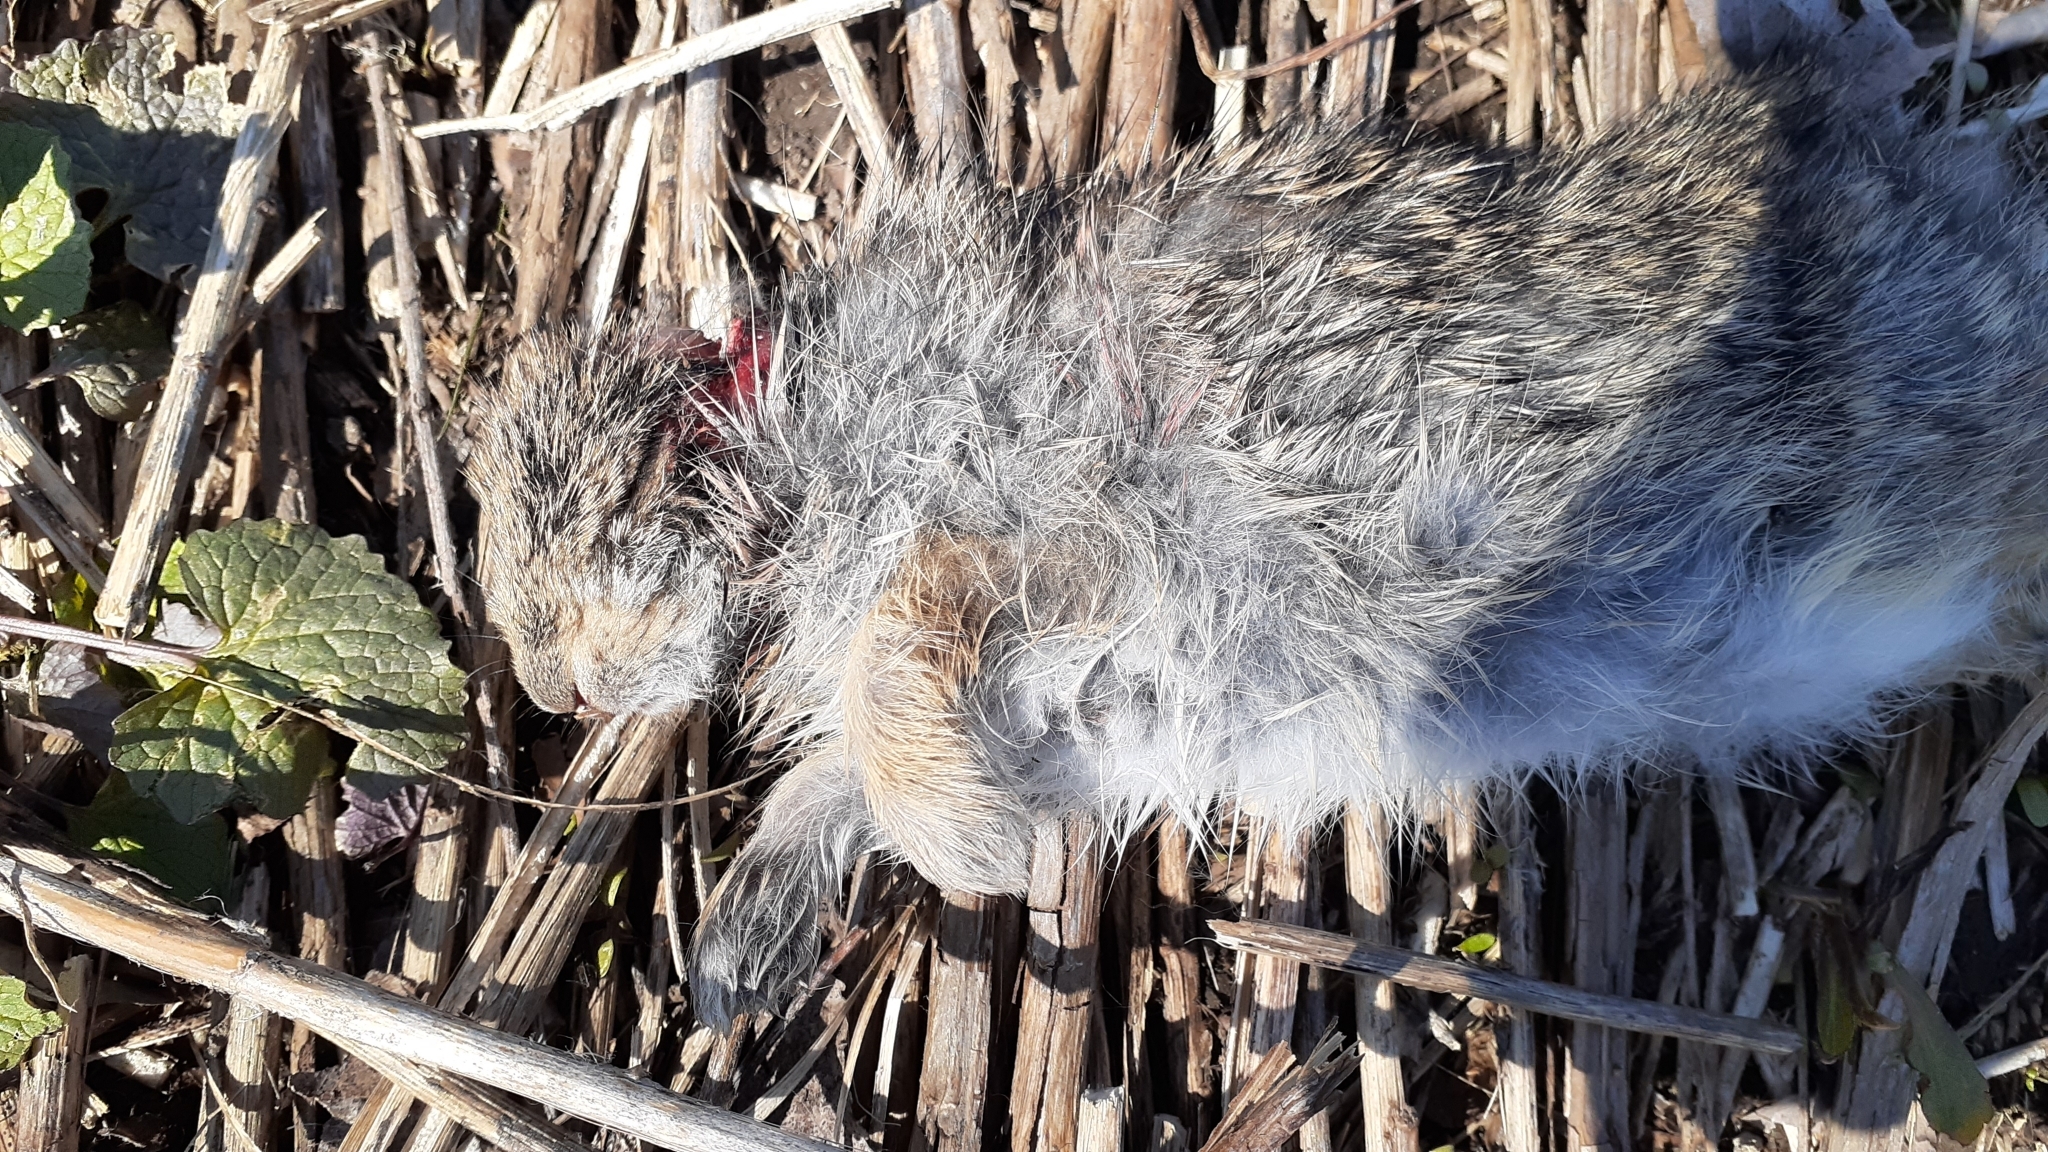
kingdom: Animalia
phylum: Chordata
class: Mammalia
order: Lagomorpha
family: Leporidae
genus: Sylvilagus
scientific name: Sylvilagus floridanus
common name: Eastern cottontail
